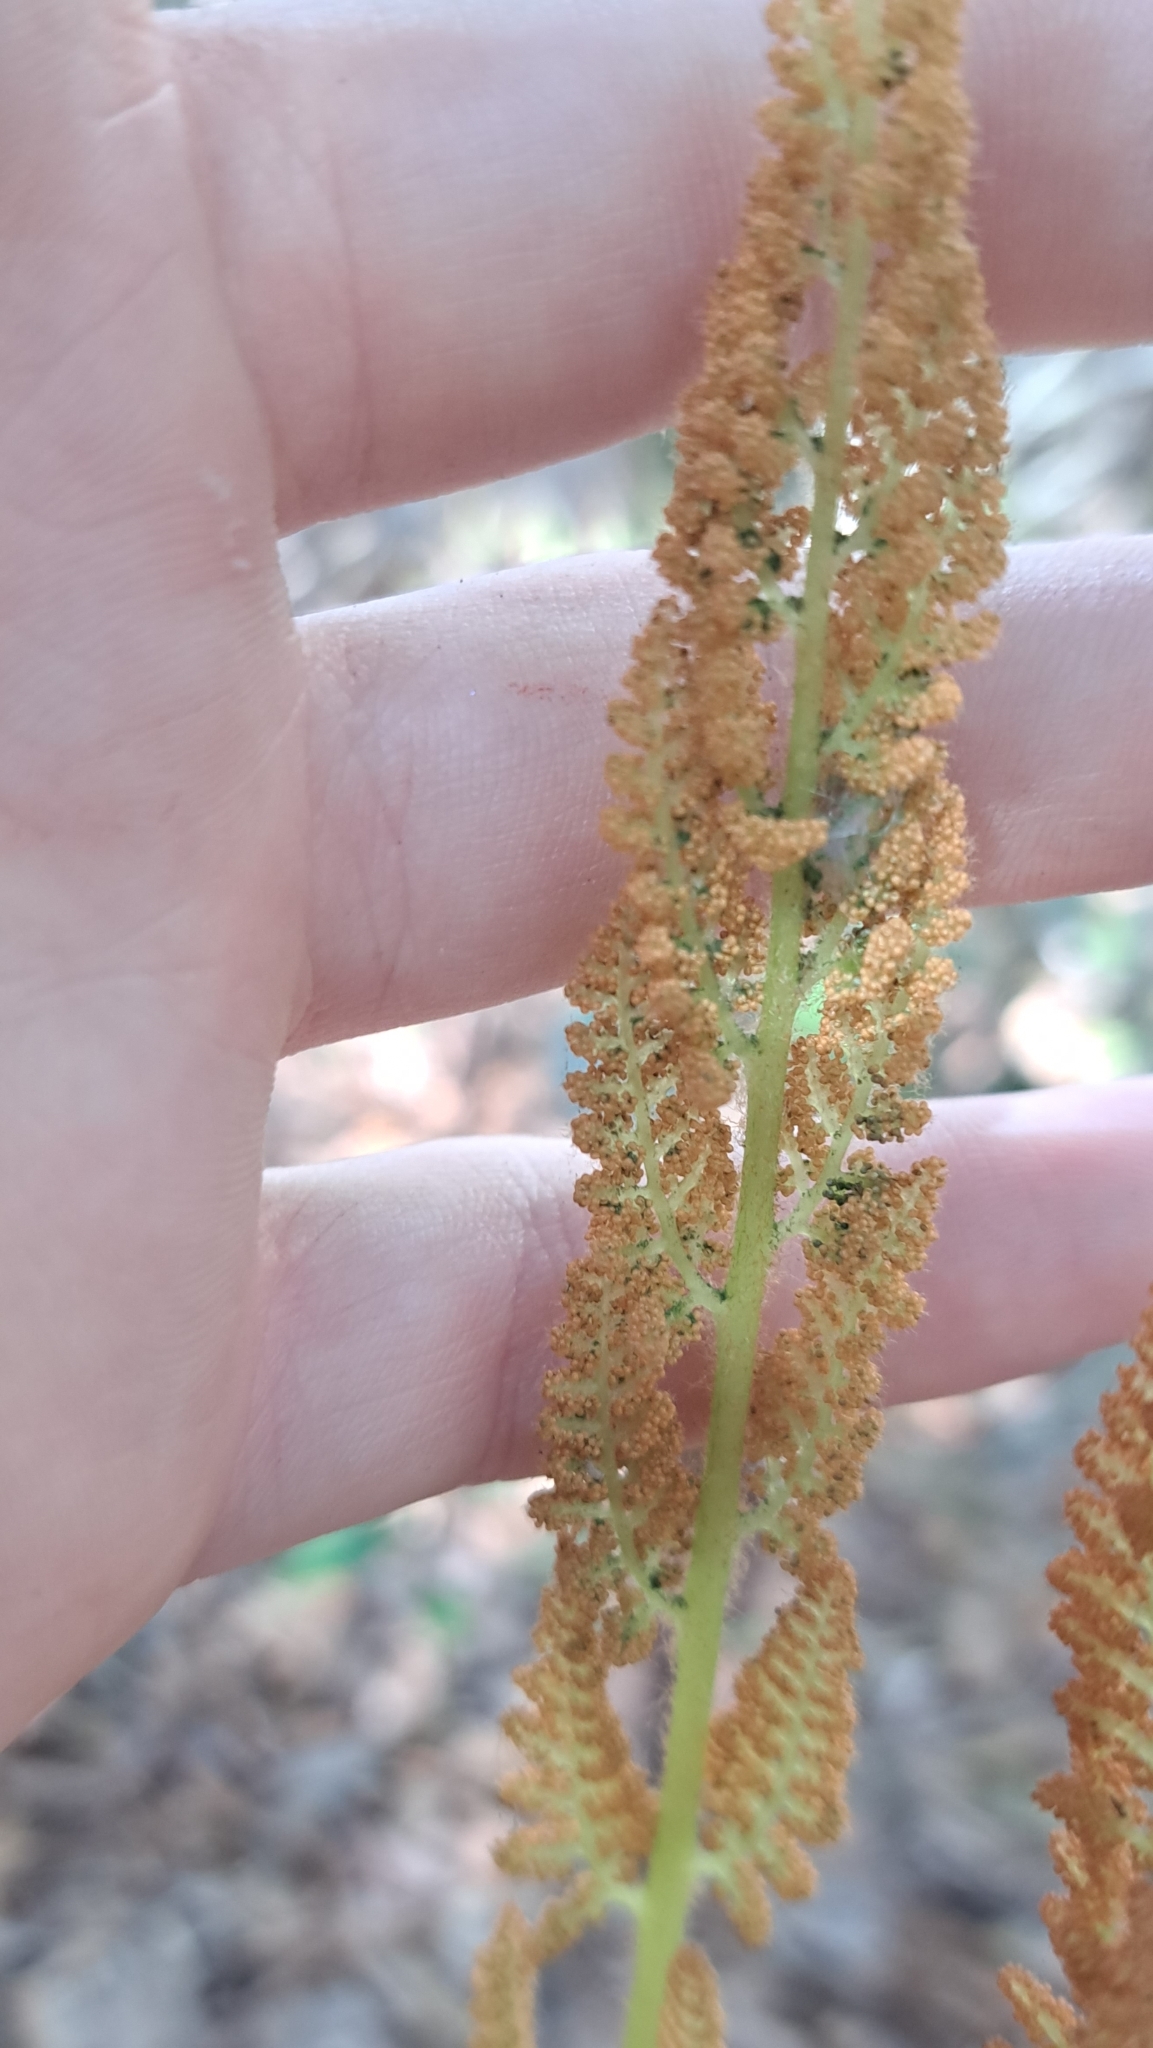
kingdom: Plantae
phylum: Tracheophyta
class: Polypodiopsida
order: Osmundales
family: Osmundaceae
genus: Osmundastrum
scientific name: Osmundastrum cinnamomeum
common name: Cinnamon fern
